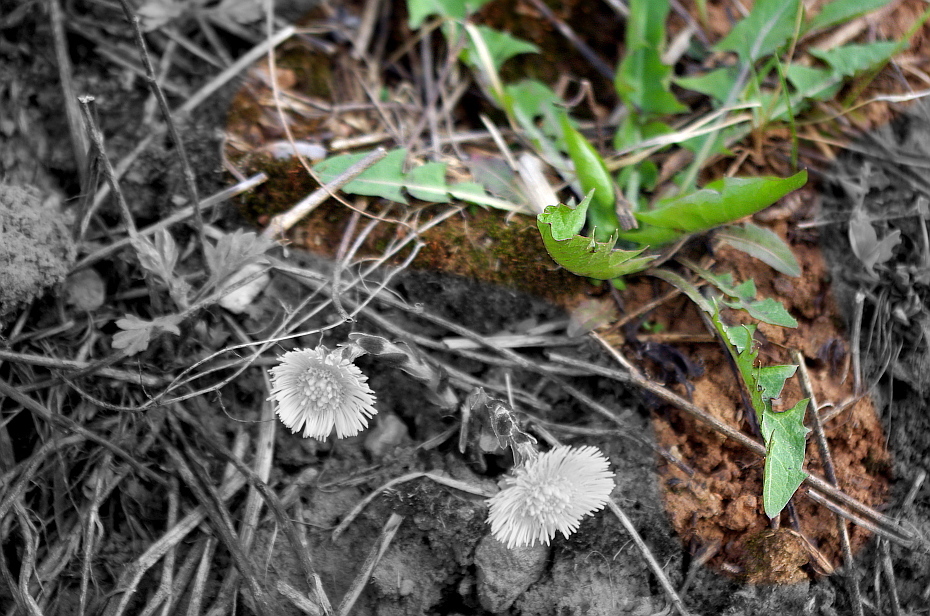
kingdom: Plantae
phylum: Tracheophyta
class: Magnoliopsida
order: Asterales
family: Asteraceae
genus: Taraxacum
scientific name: Taraxacum officinale
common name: Common dandelion
